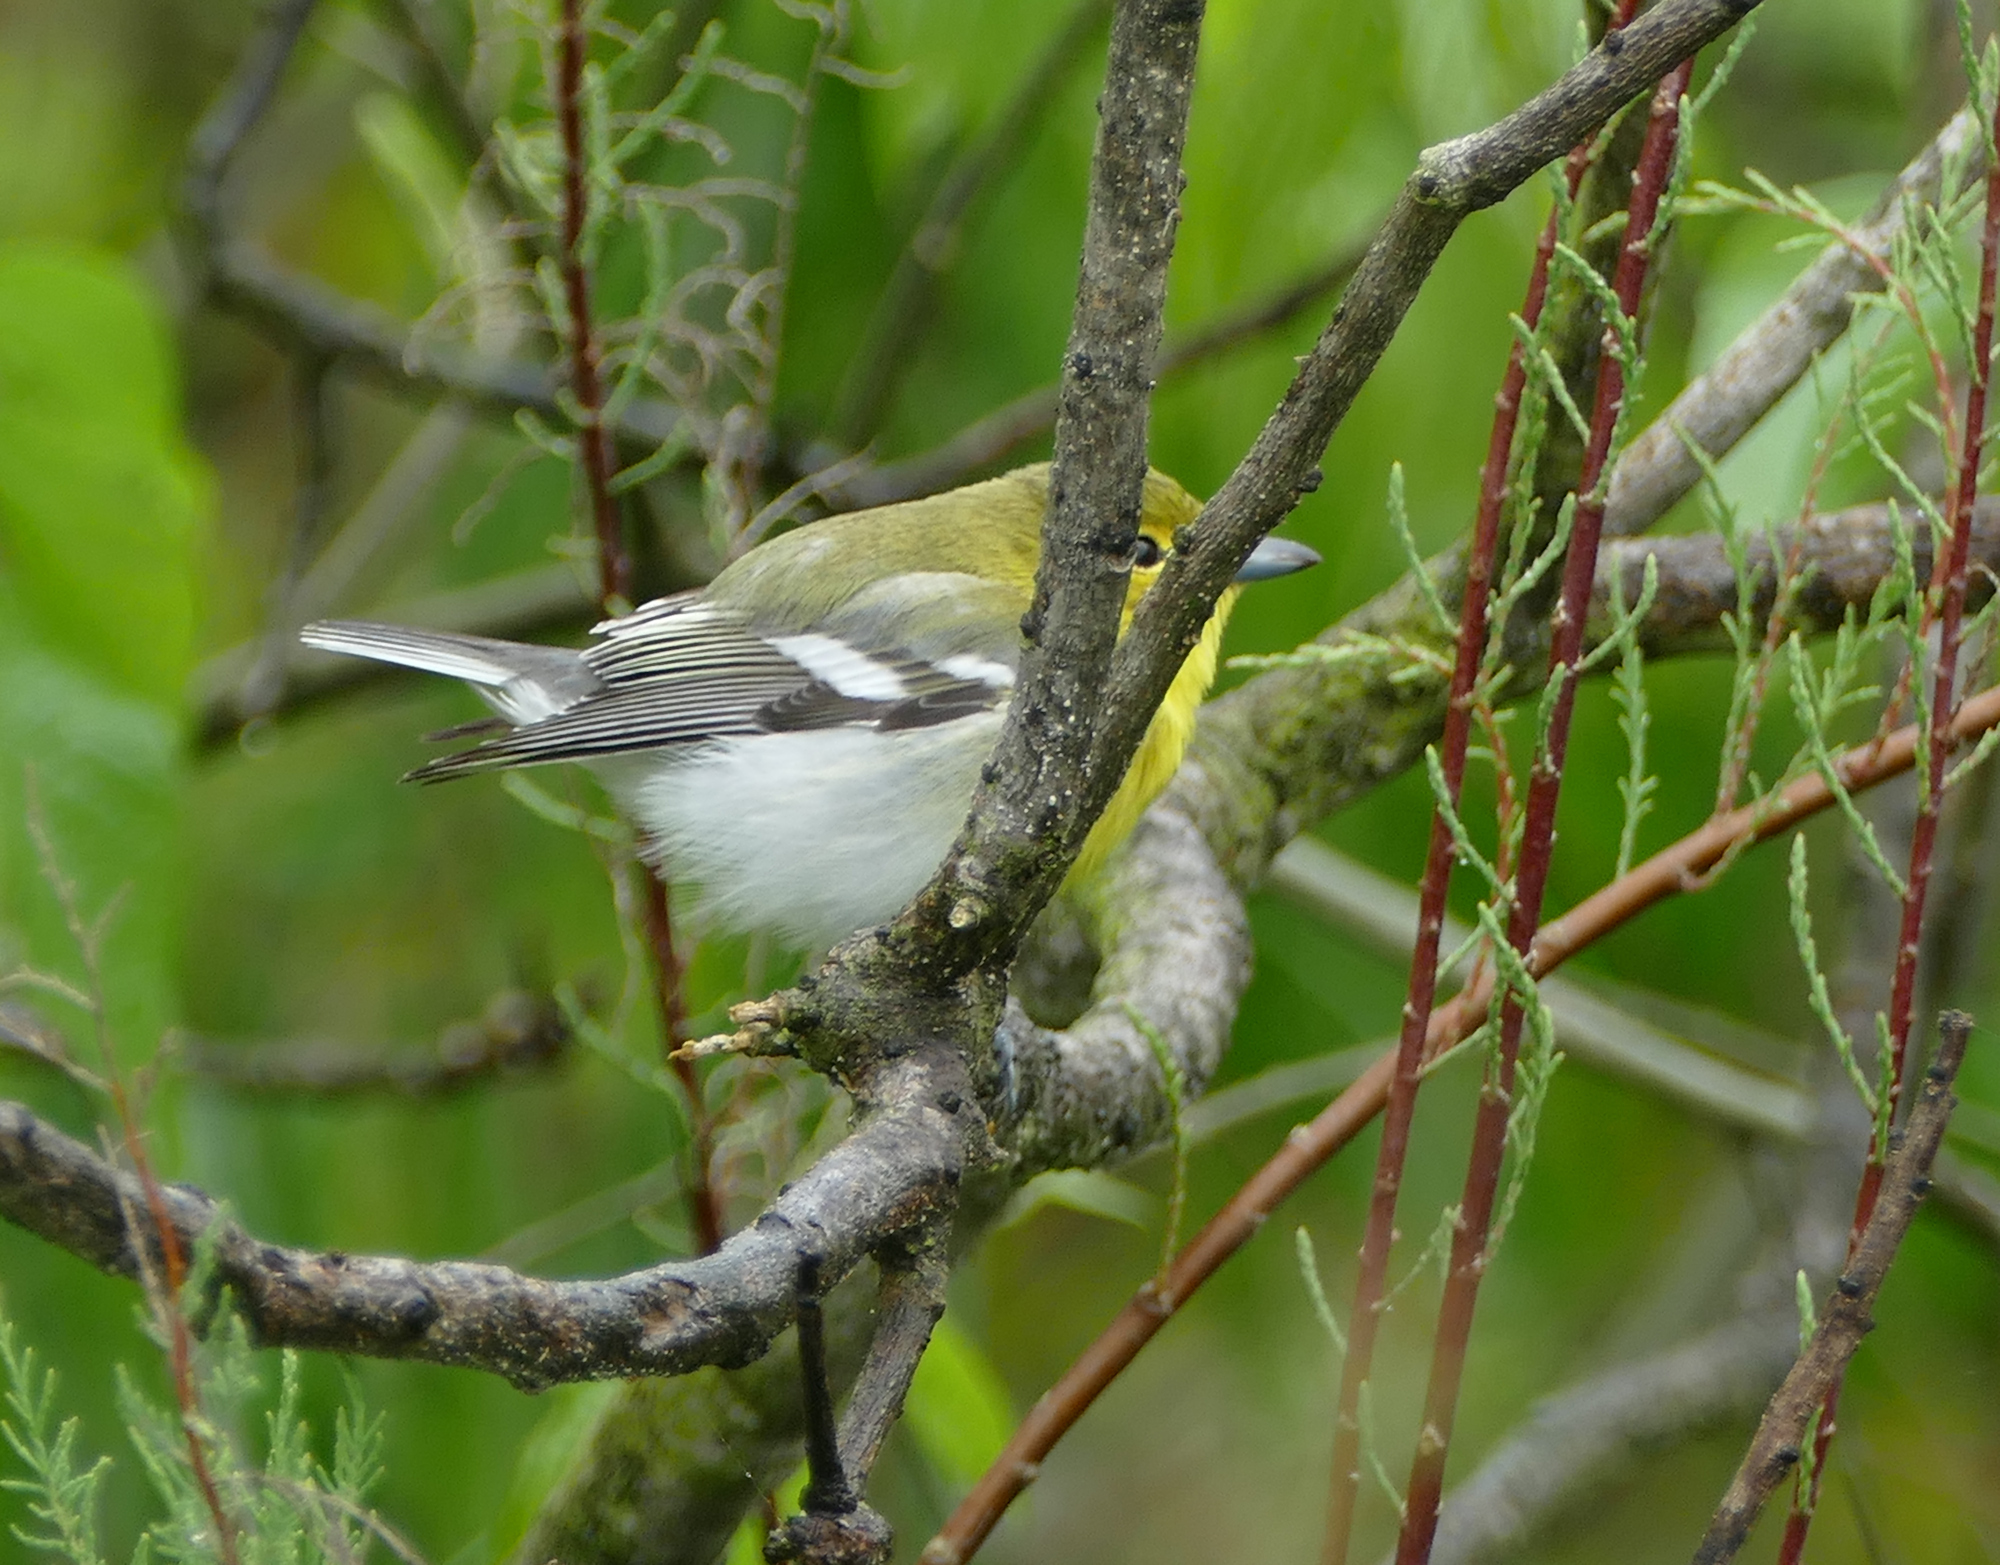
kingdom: Animalia
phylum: Chordata
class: Aves
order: Passeriformes
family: Vireonidae
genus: Vireo
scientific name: Vireo flavifrons
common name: Yellow-throated vireo
